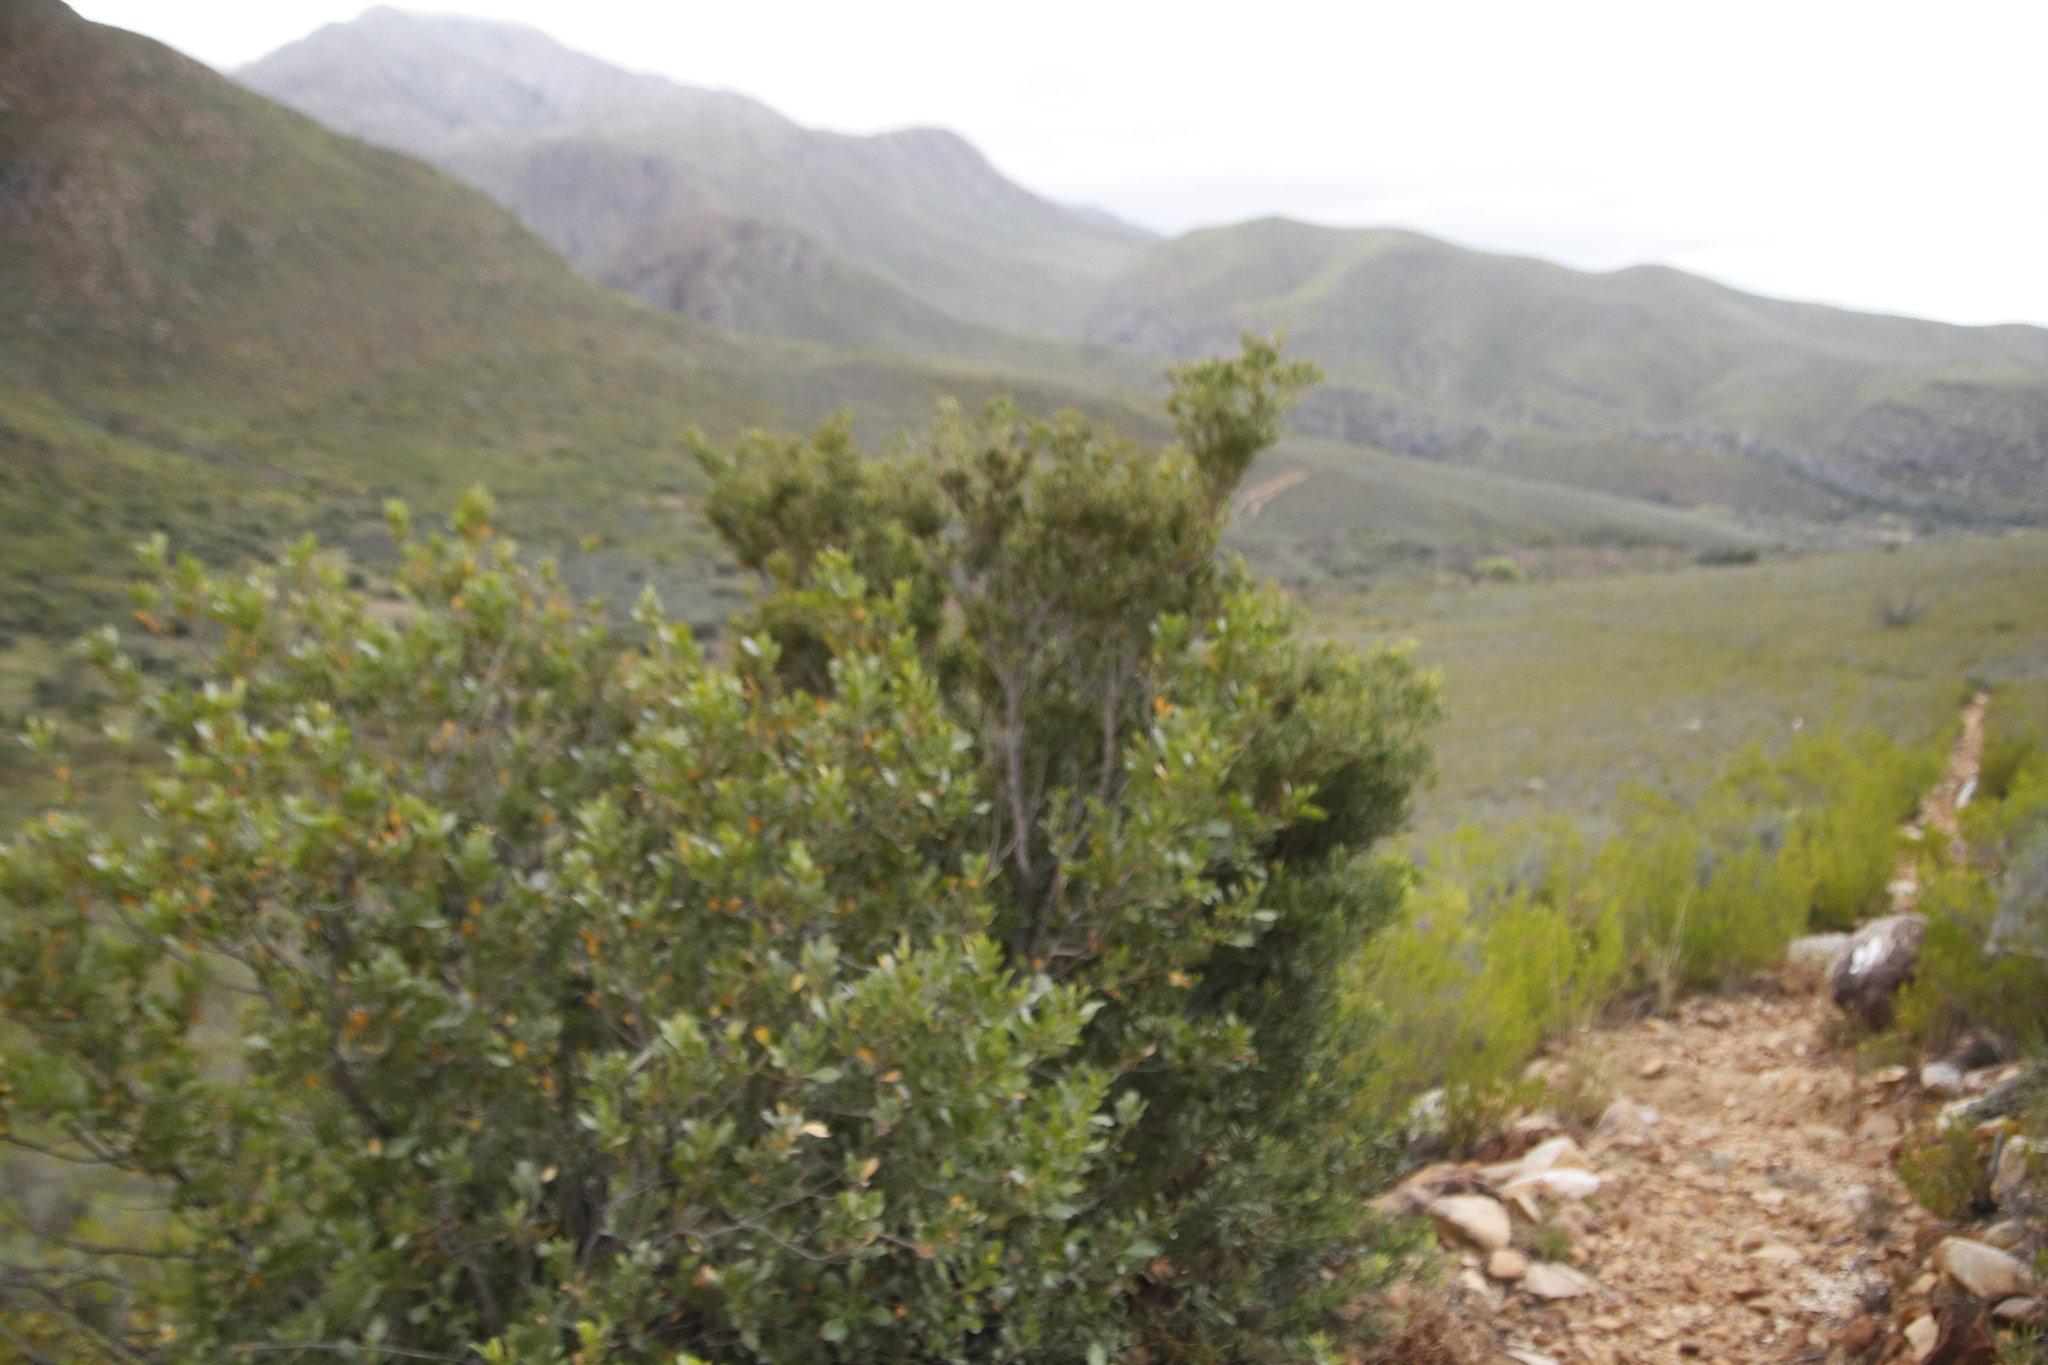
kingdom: Plantae
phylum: Tracheophyta
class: Magnoliopsida
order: Sapindales
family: Anacardiaceae
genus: Searsia
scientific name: Searsia lucida
